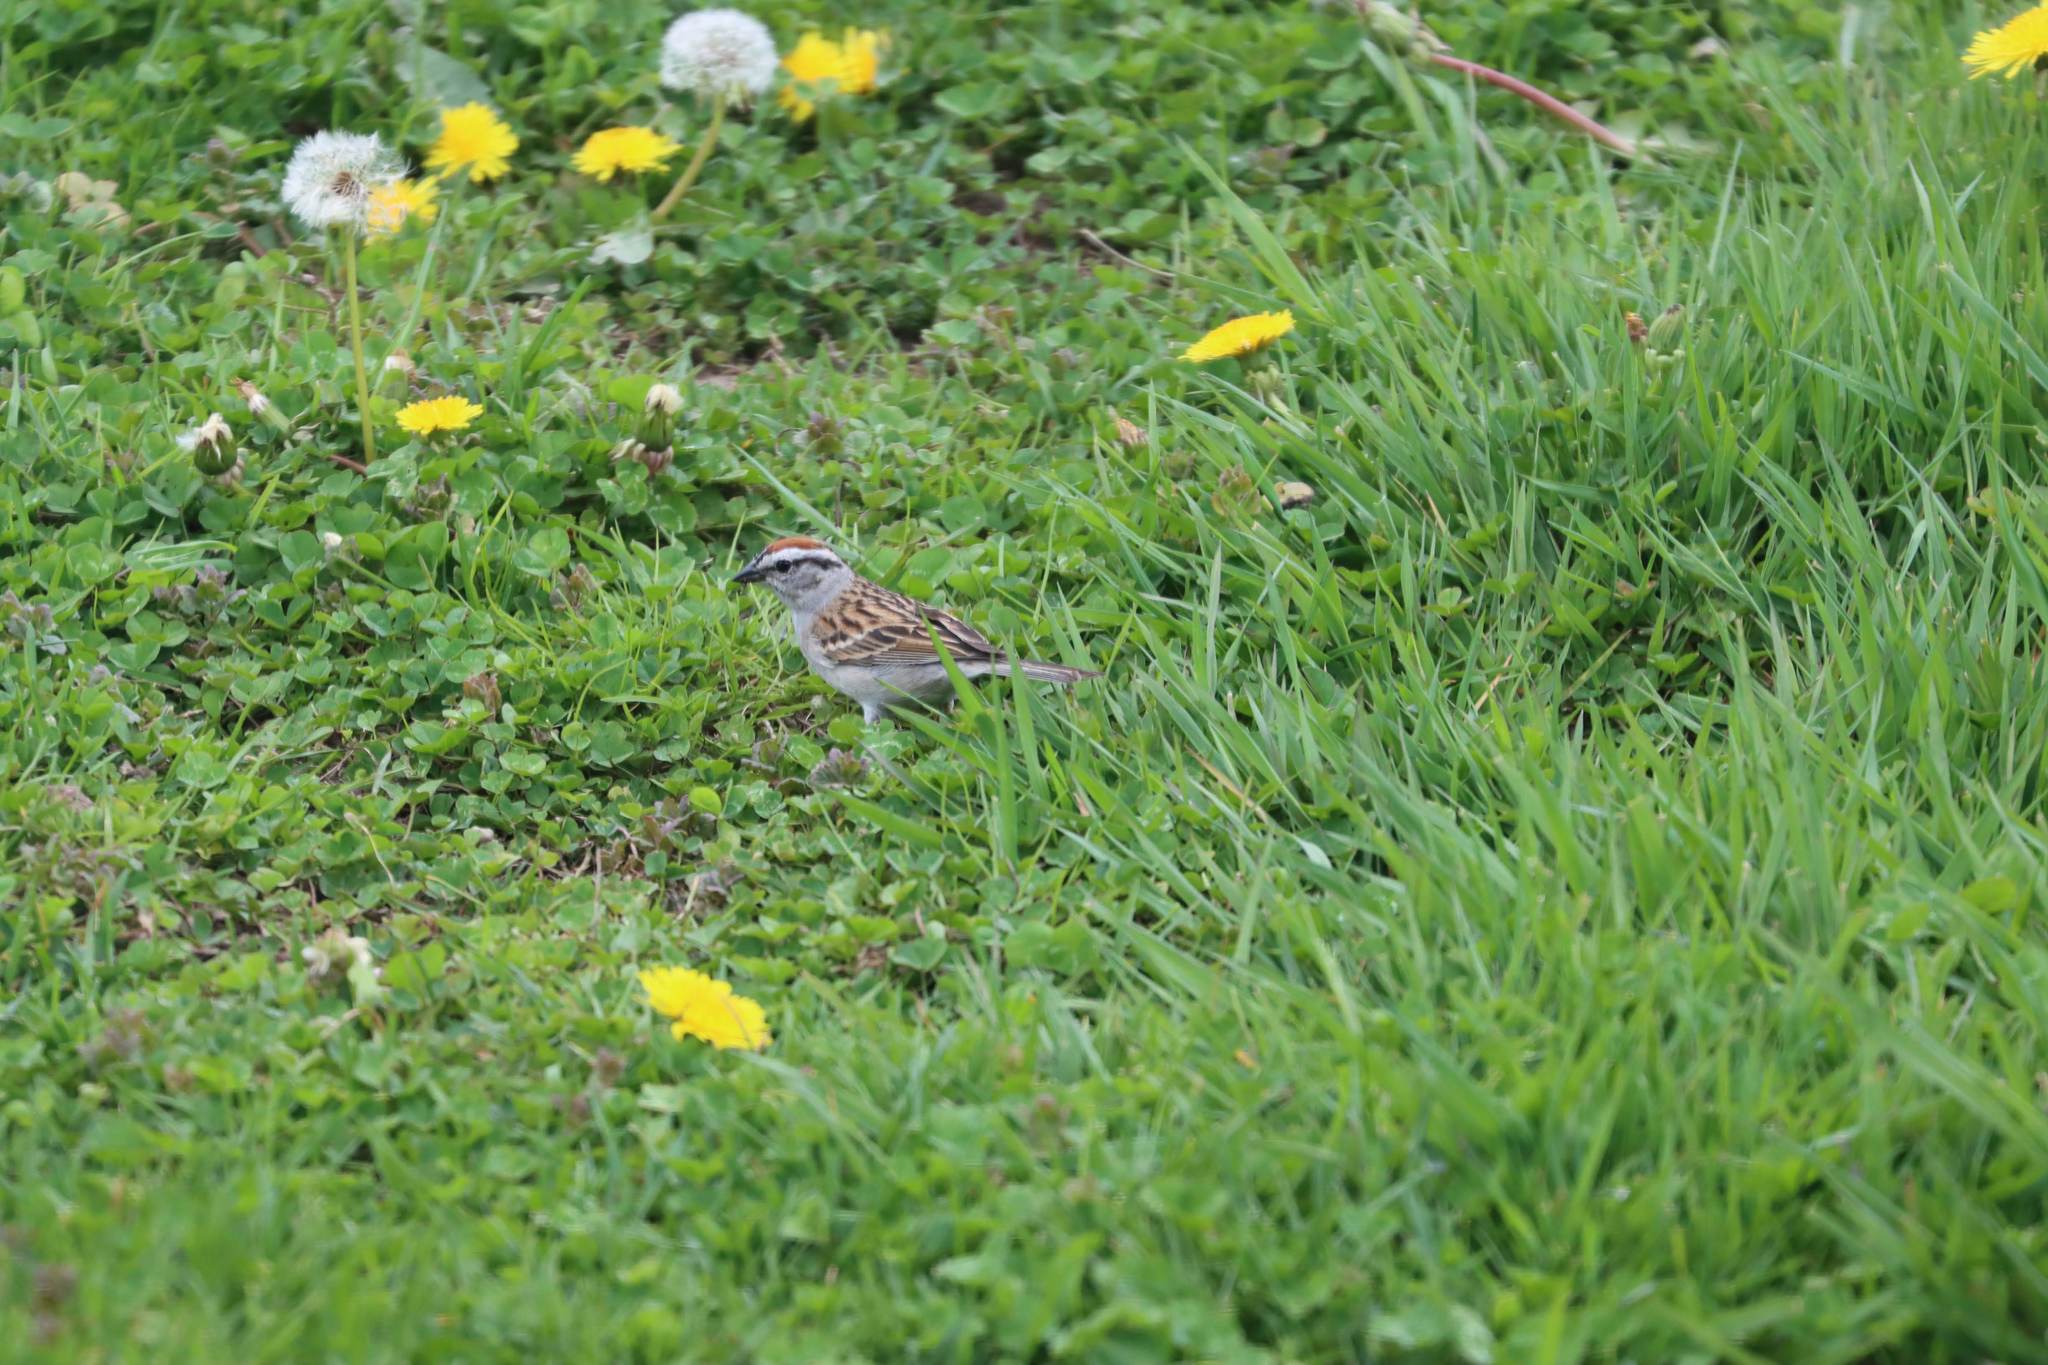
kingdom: Animalia
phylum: Chordata
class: Aves
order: Passeriformes
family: Passerellidae
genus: Spizella
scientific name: Spizella passerina
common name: Chipping sparrow
